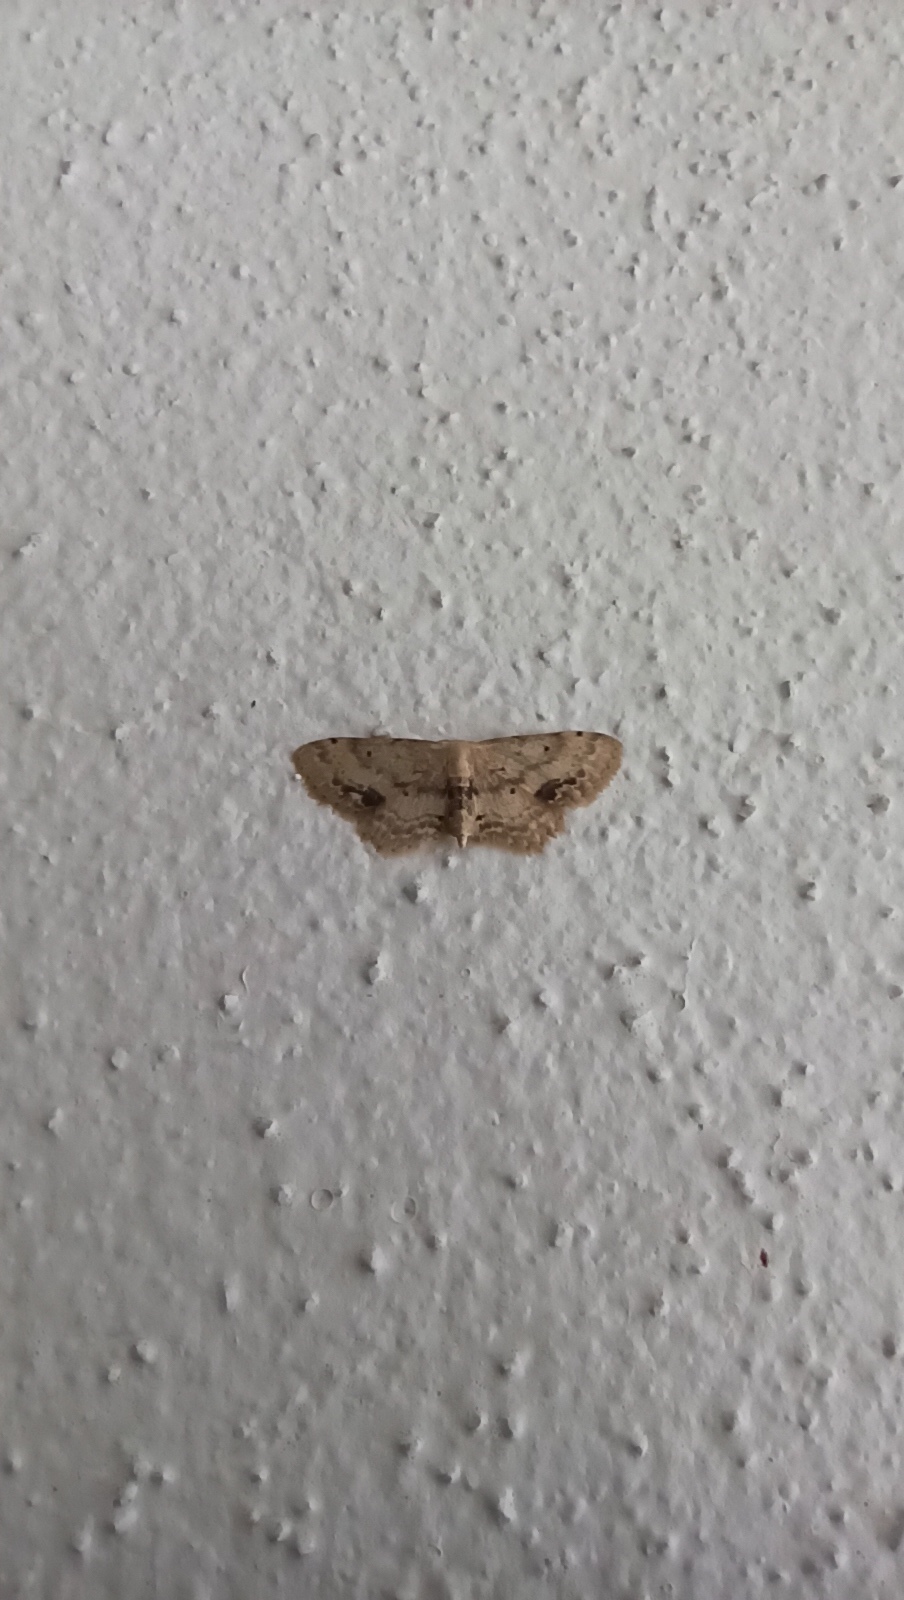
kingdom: Animalia
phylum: Arthropoda
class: Insecta
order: Lepidoptera
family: Geometridae
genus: Idaea
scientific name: Idaea dimidiata
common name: Single-dotted wave
